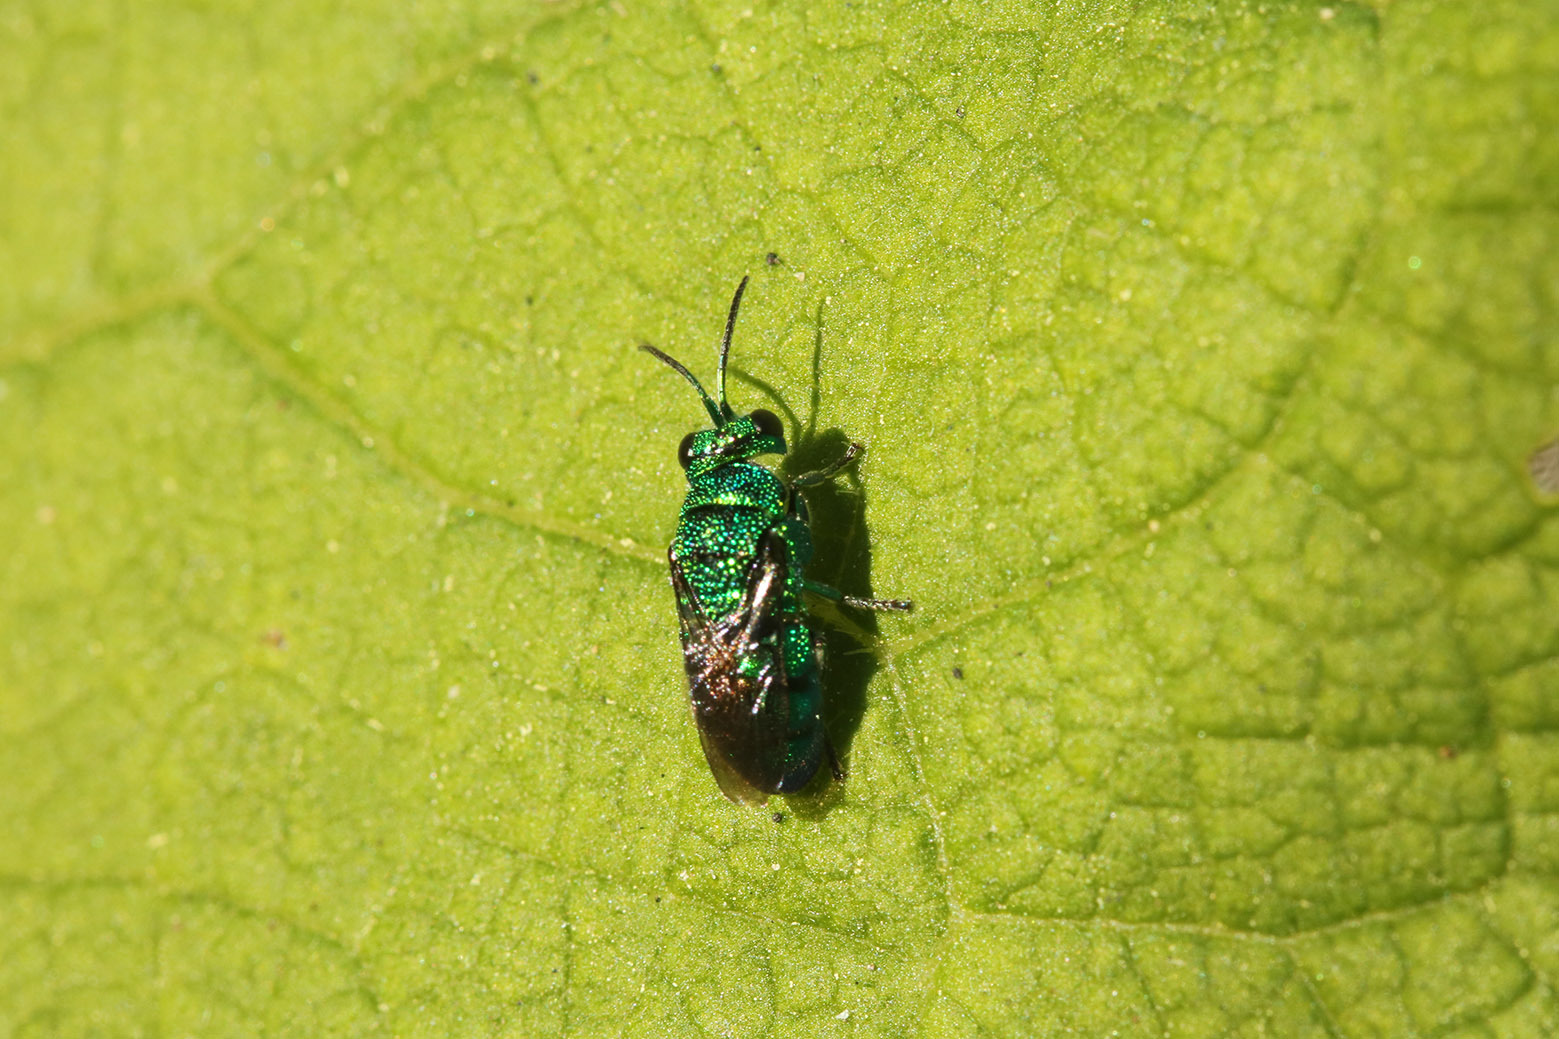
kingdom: Animalia
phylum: Arthropoda
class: Insecta
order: Hymenoptera
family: Chrysididae
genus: Holopyga
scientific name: Holopyga
